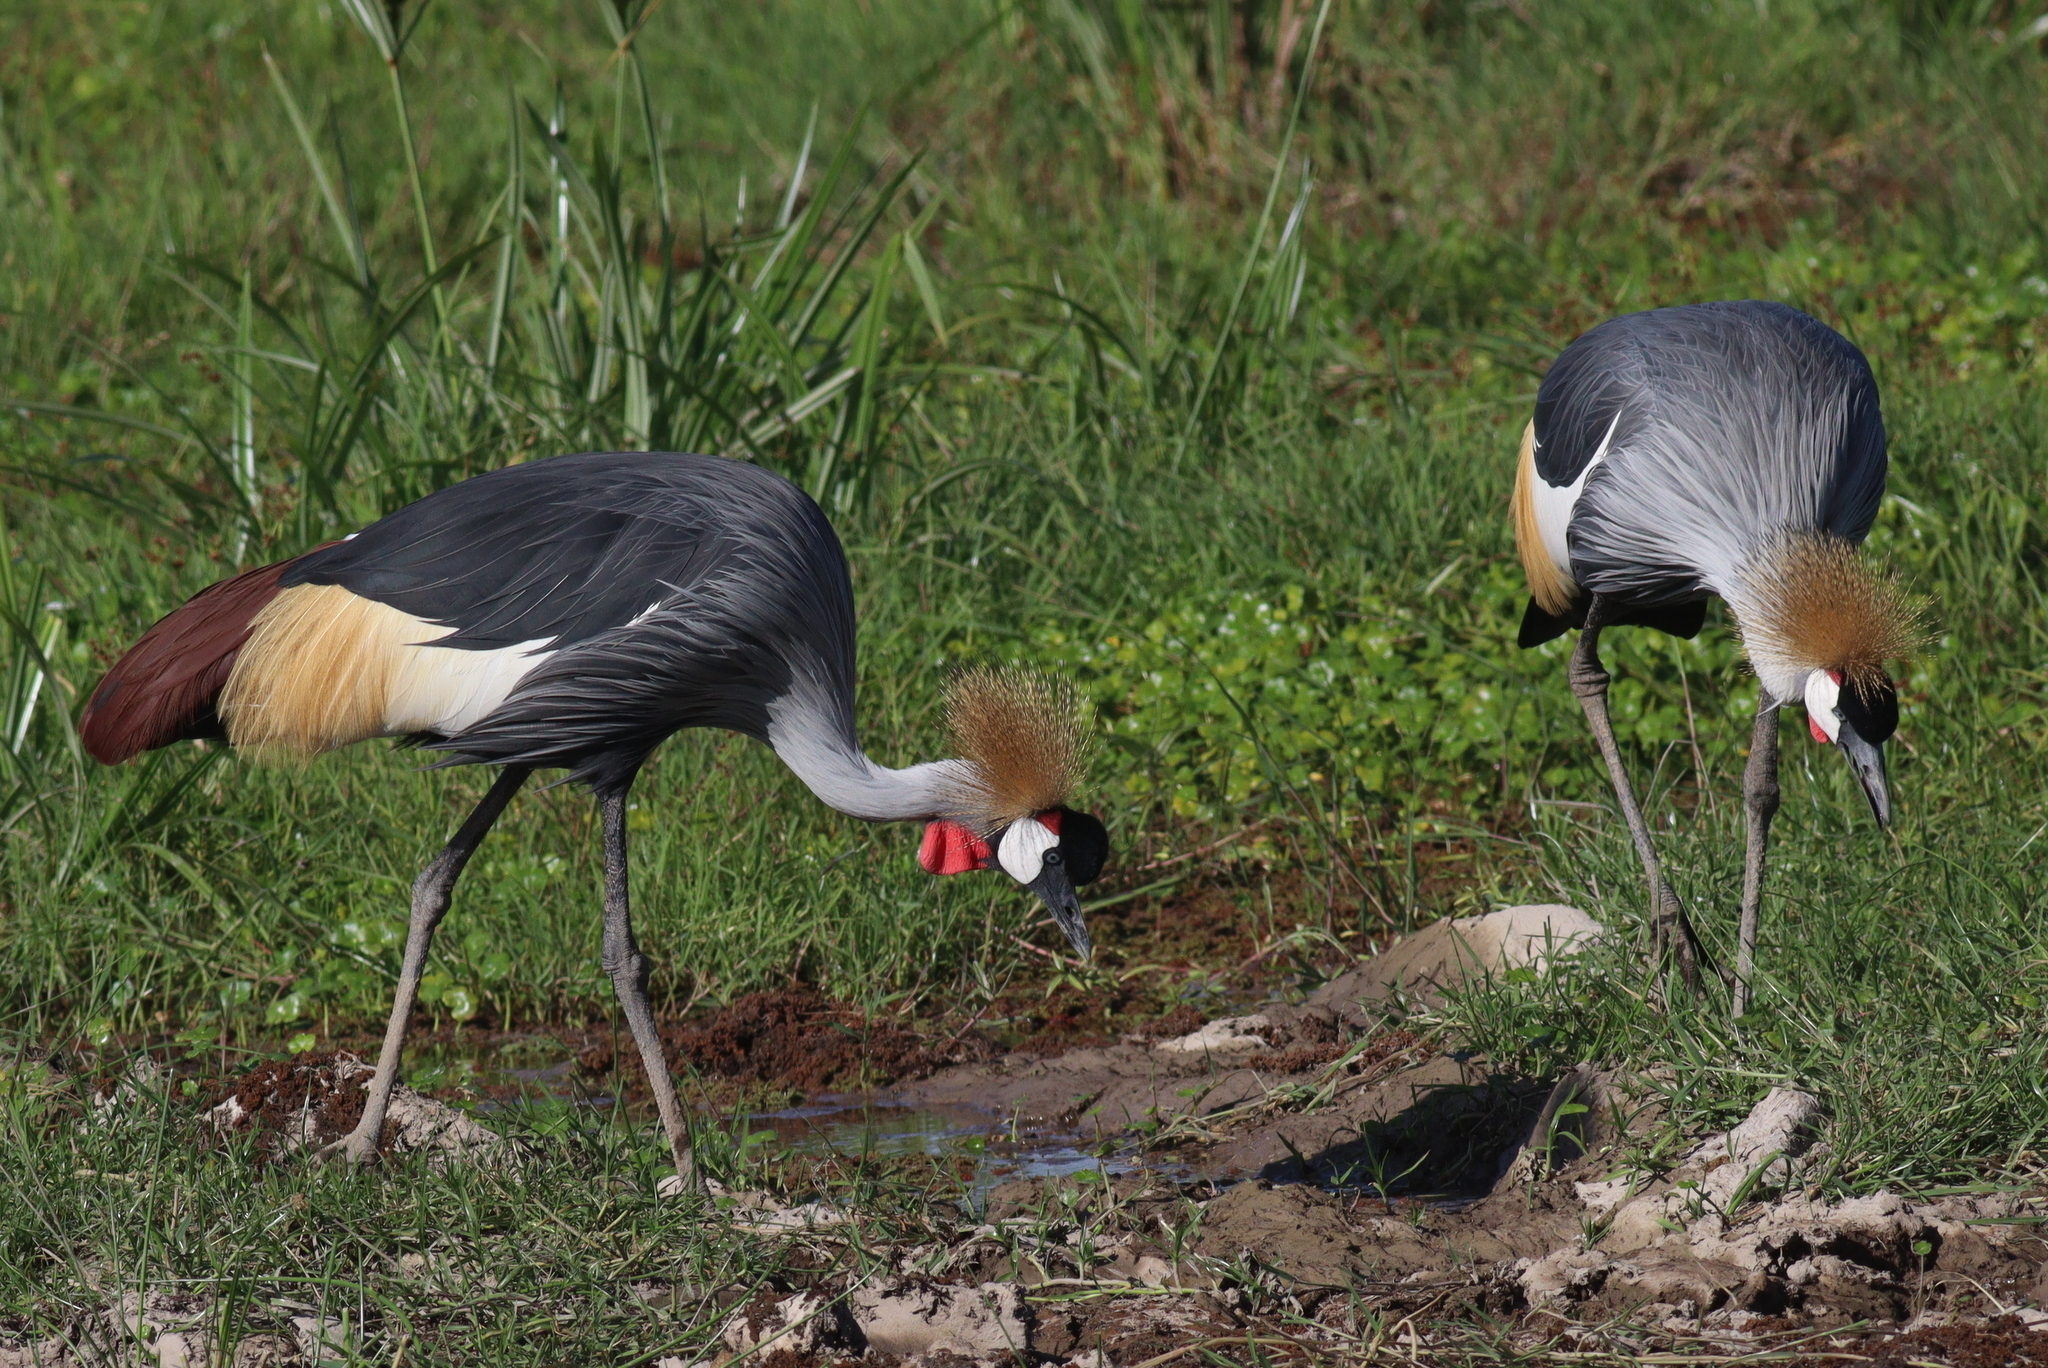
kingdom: Animalia
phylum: Chordata
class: Aves
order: Gruiformes
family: Gruidae
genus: Balearica
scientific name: Balearica regulorum
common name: Grey crowned crane
